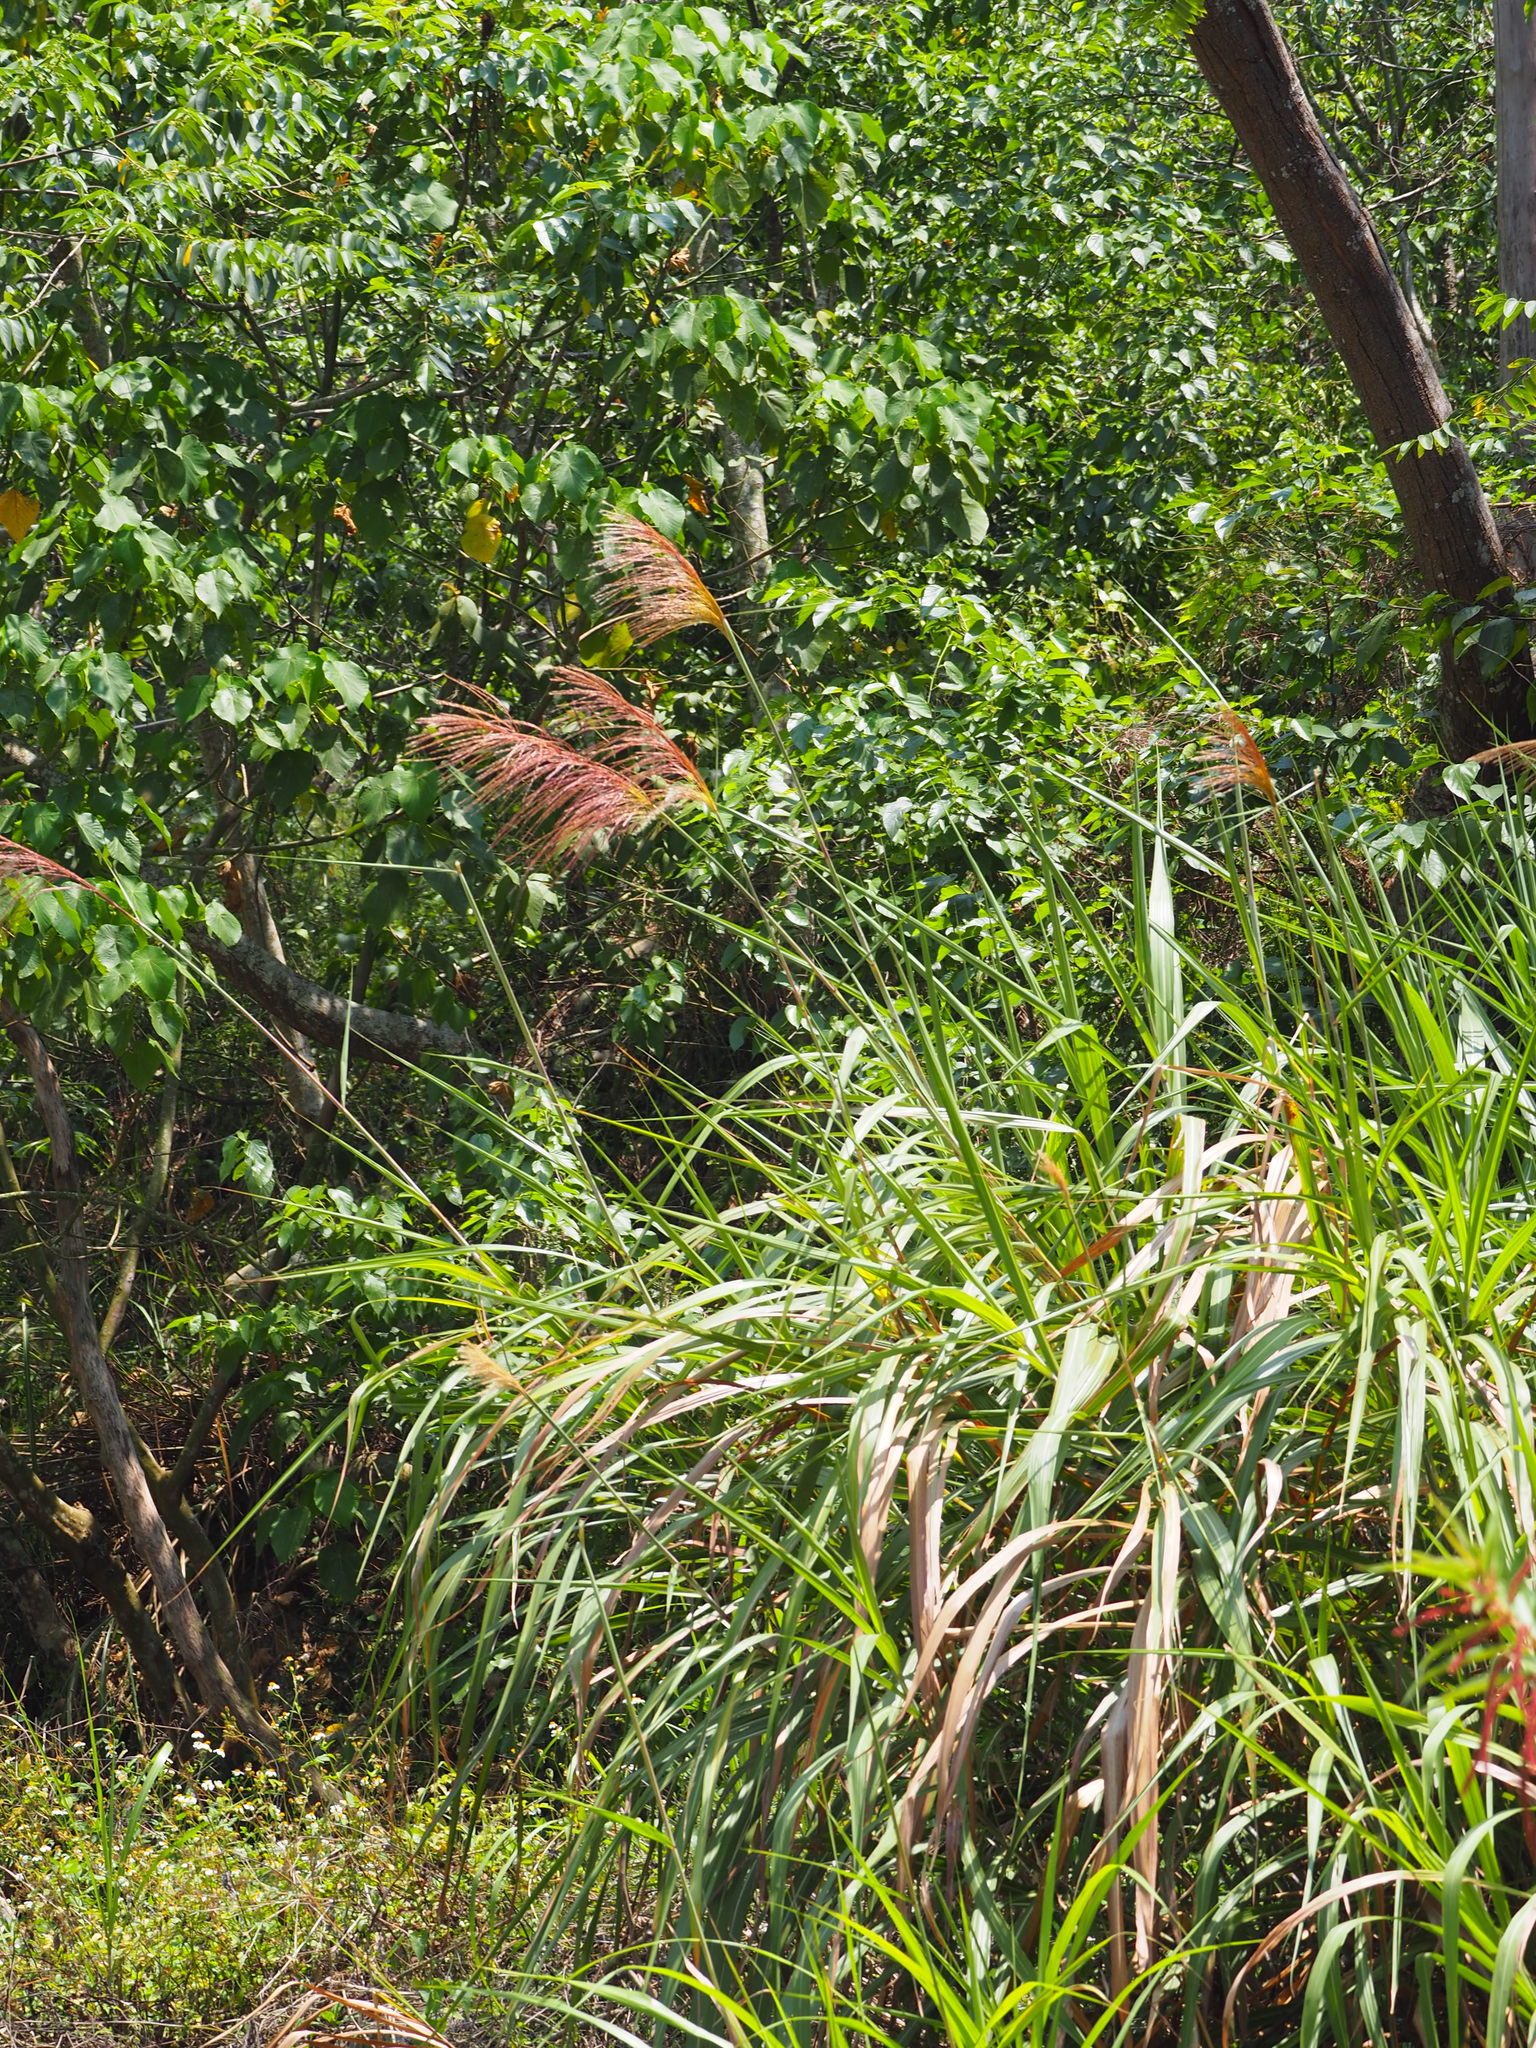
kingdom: Plantae
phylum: Tracheophyta
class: Liliopsida
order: Poales
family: Poaceae
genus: Miscanthus
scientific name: Miscanthus sinensis
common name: Chinese silvergrass
